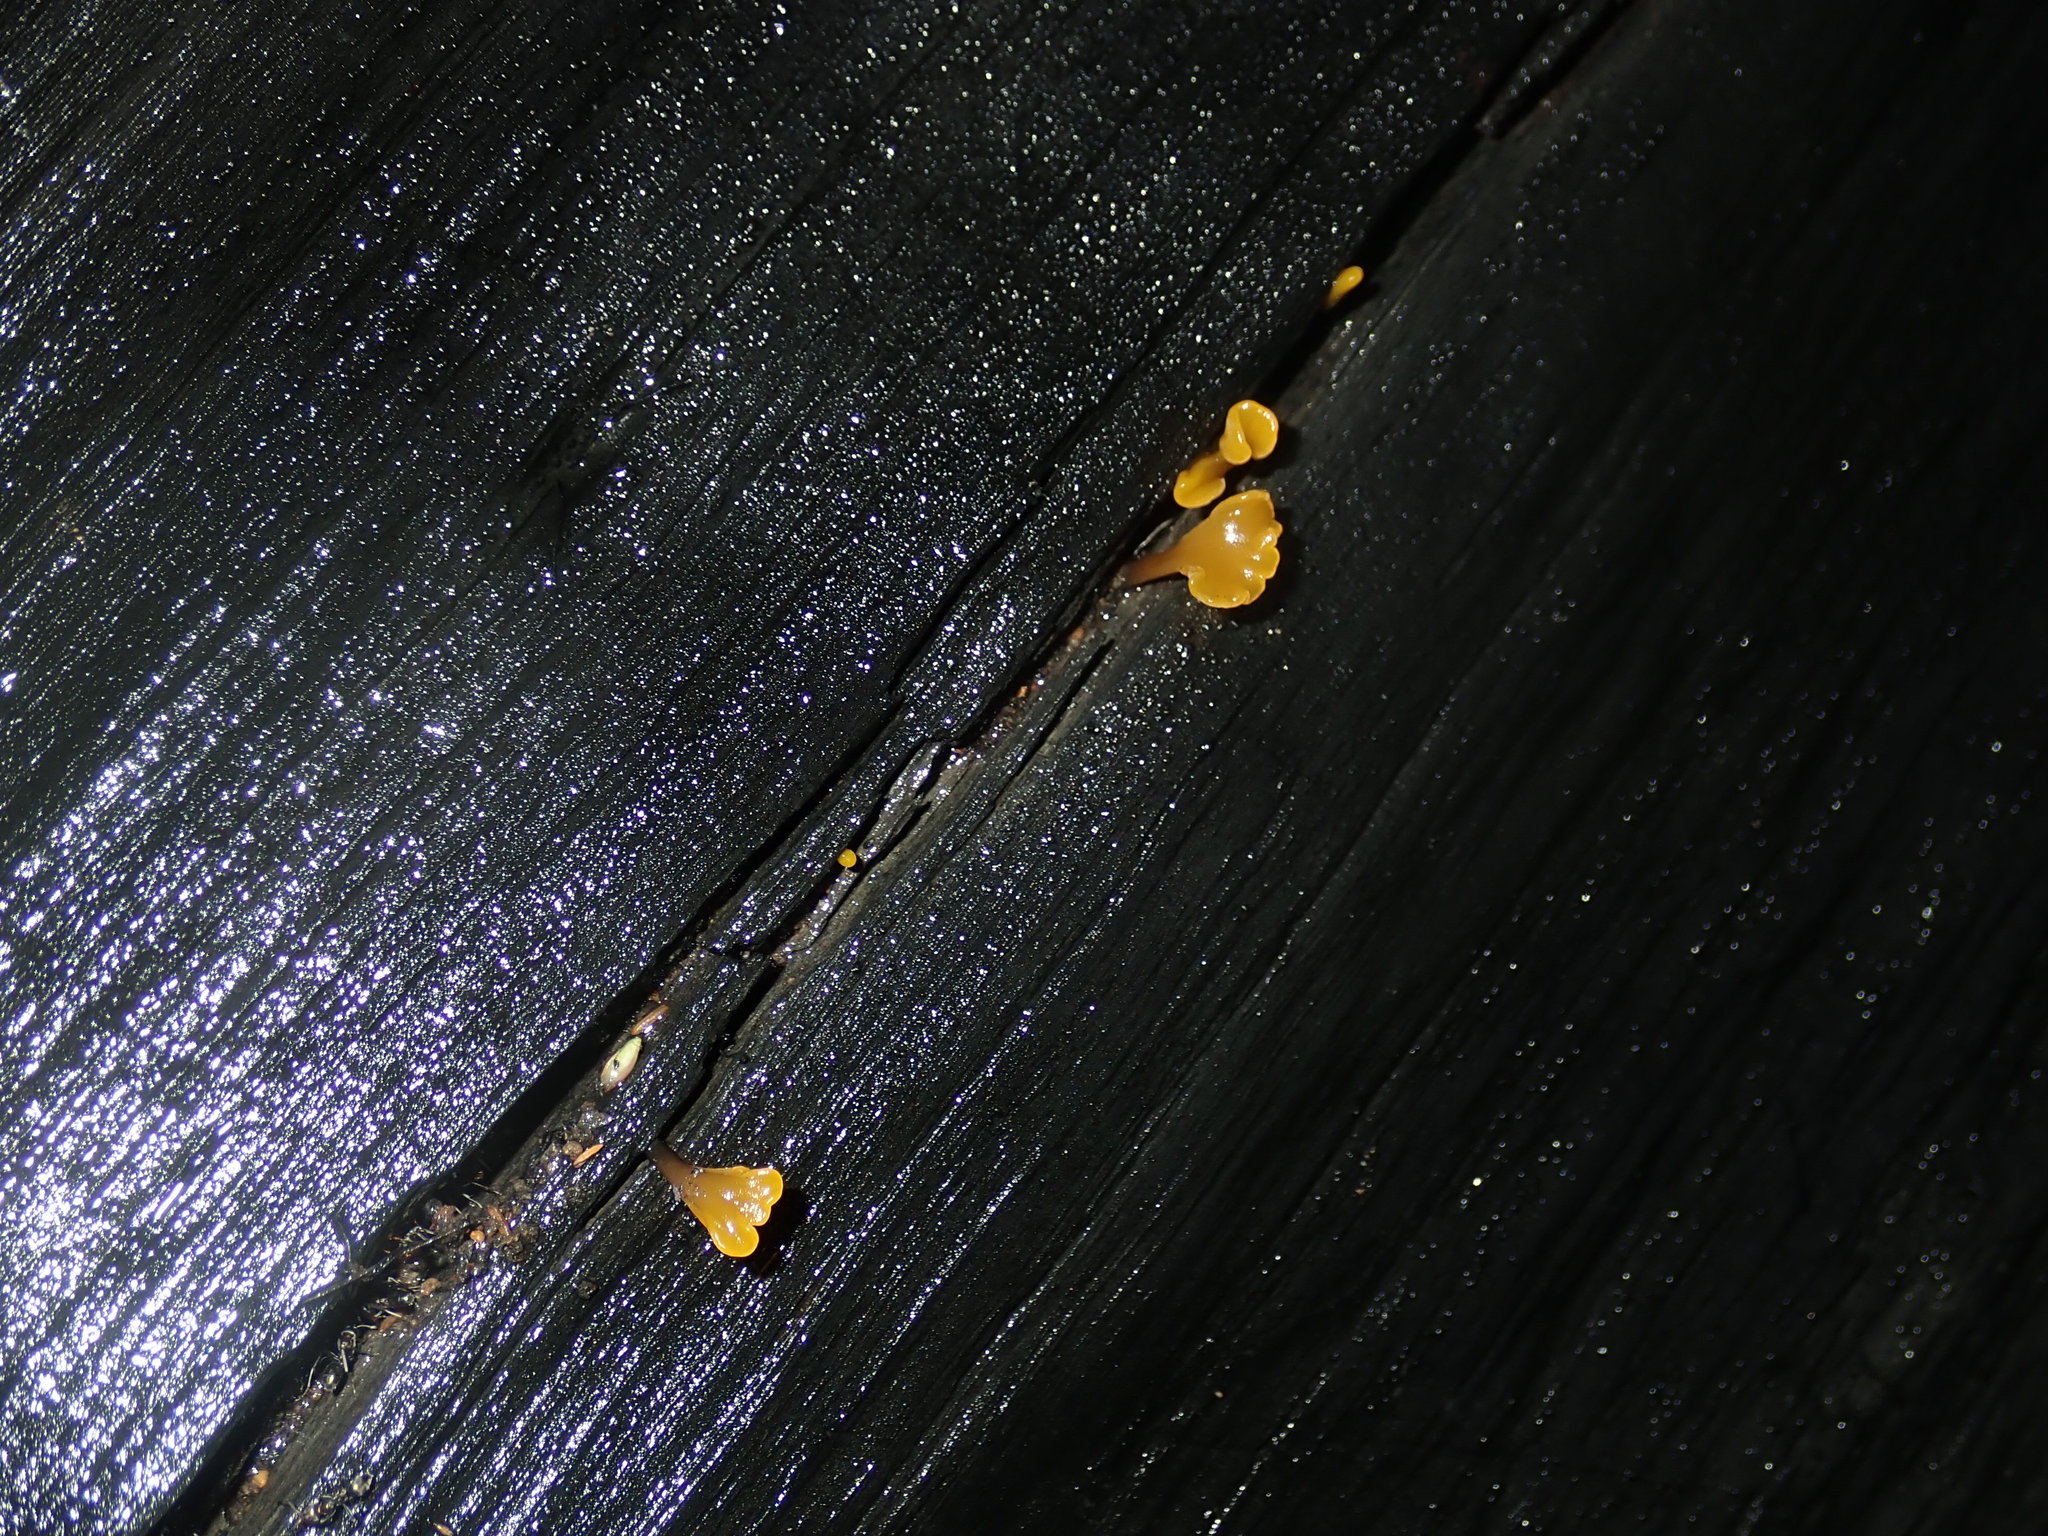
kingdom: Fungi
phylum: Basidiomycota
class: Dacrymycetes
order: Dacrymycetales
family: Dacrymycetaceae
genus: Dacrymyces
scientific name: Dacrymyces spathularius
